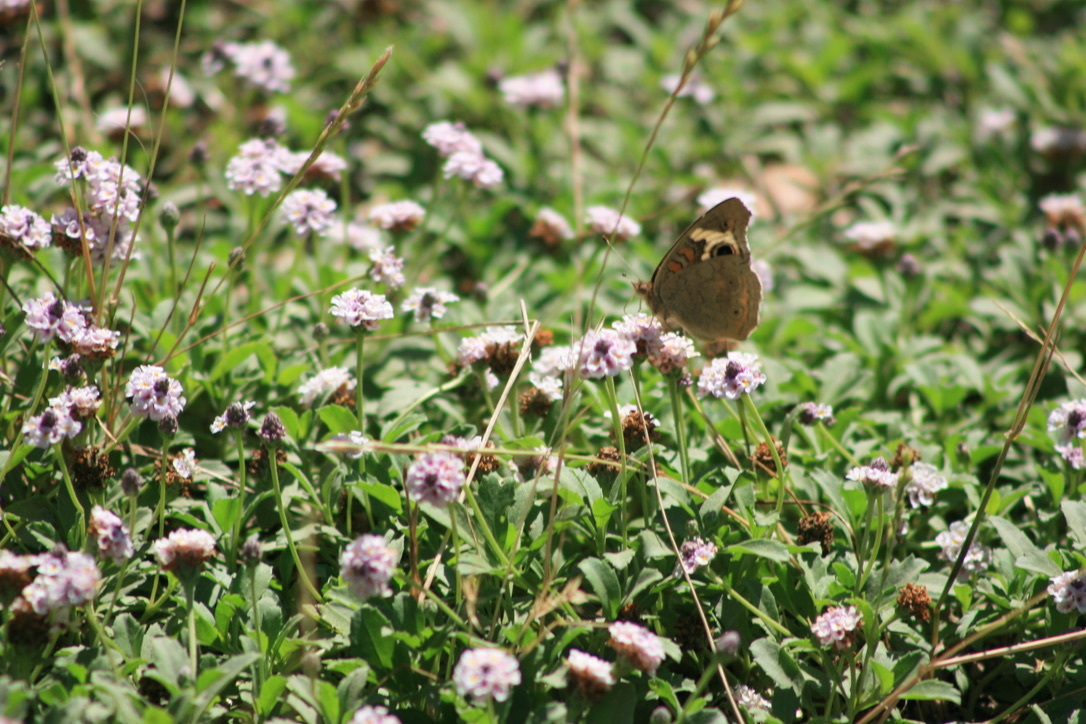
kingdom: Animalia
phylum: Arthropoda
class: Insecta
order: Lepidoptera
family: Nymphalidae
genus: Junonia
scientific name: Junonia grisea
